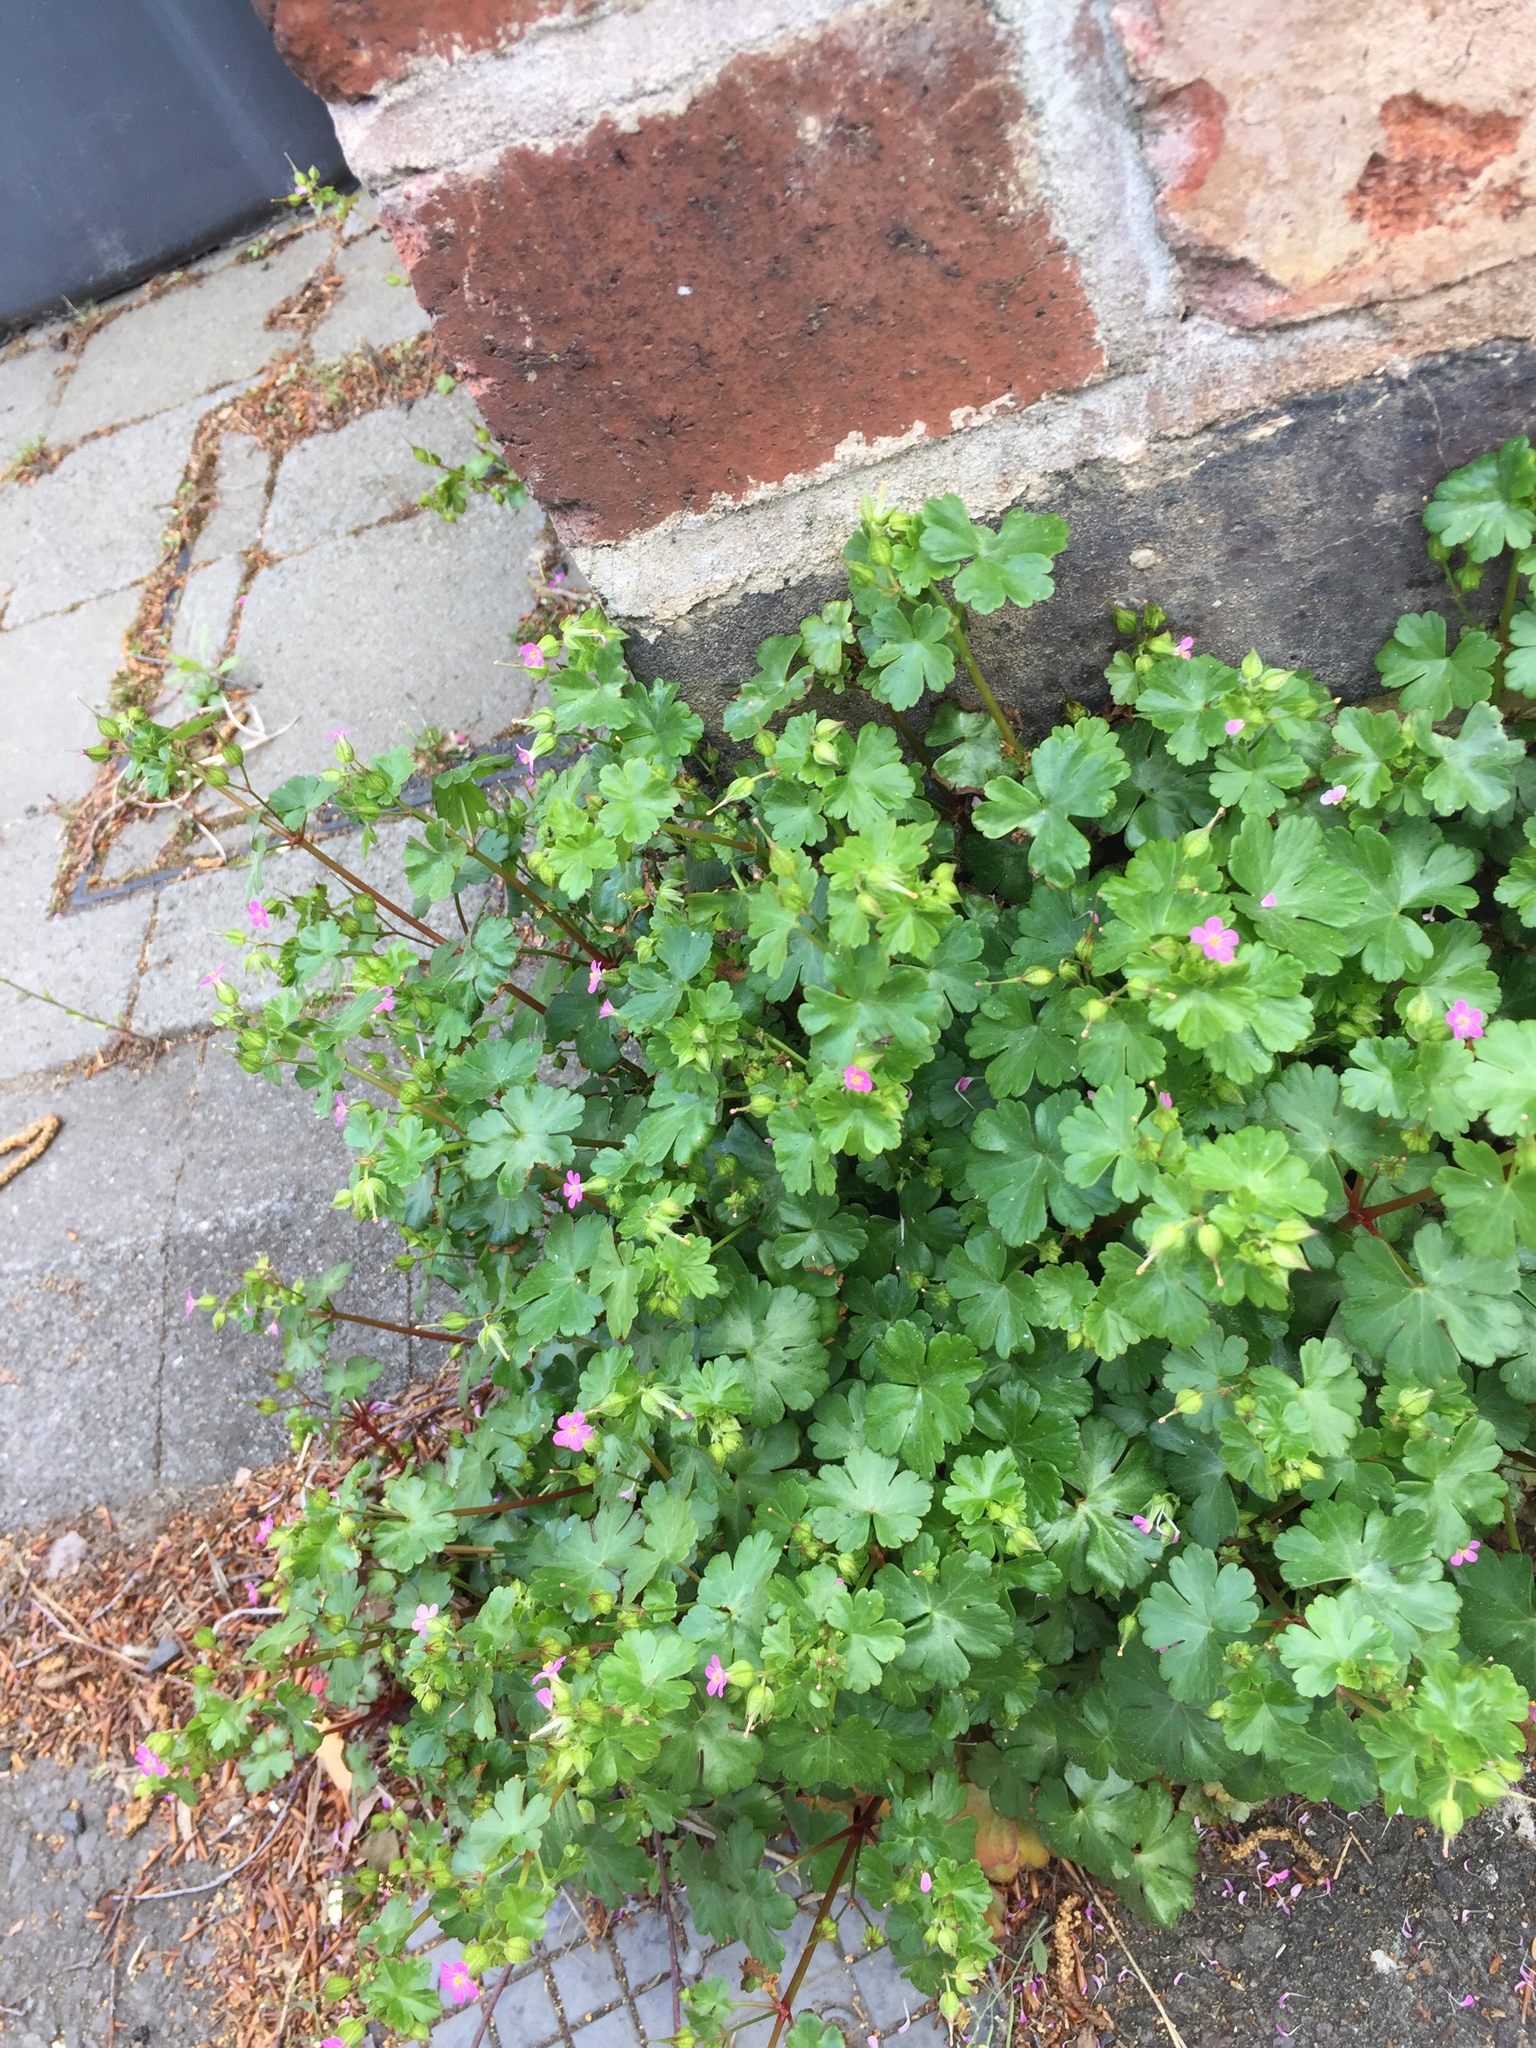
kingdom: Plantae
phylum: Tracheophyta
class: Magnoliopsida
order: Geraniales
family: Geraniaceae
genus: Geranium
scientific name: Geranium lucidum
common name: Shining crane's-bill
